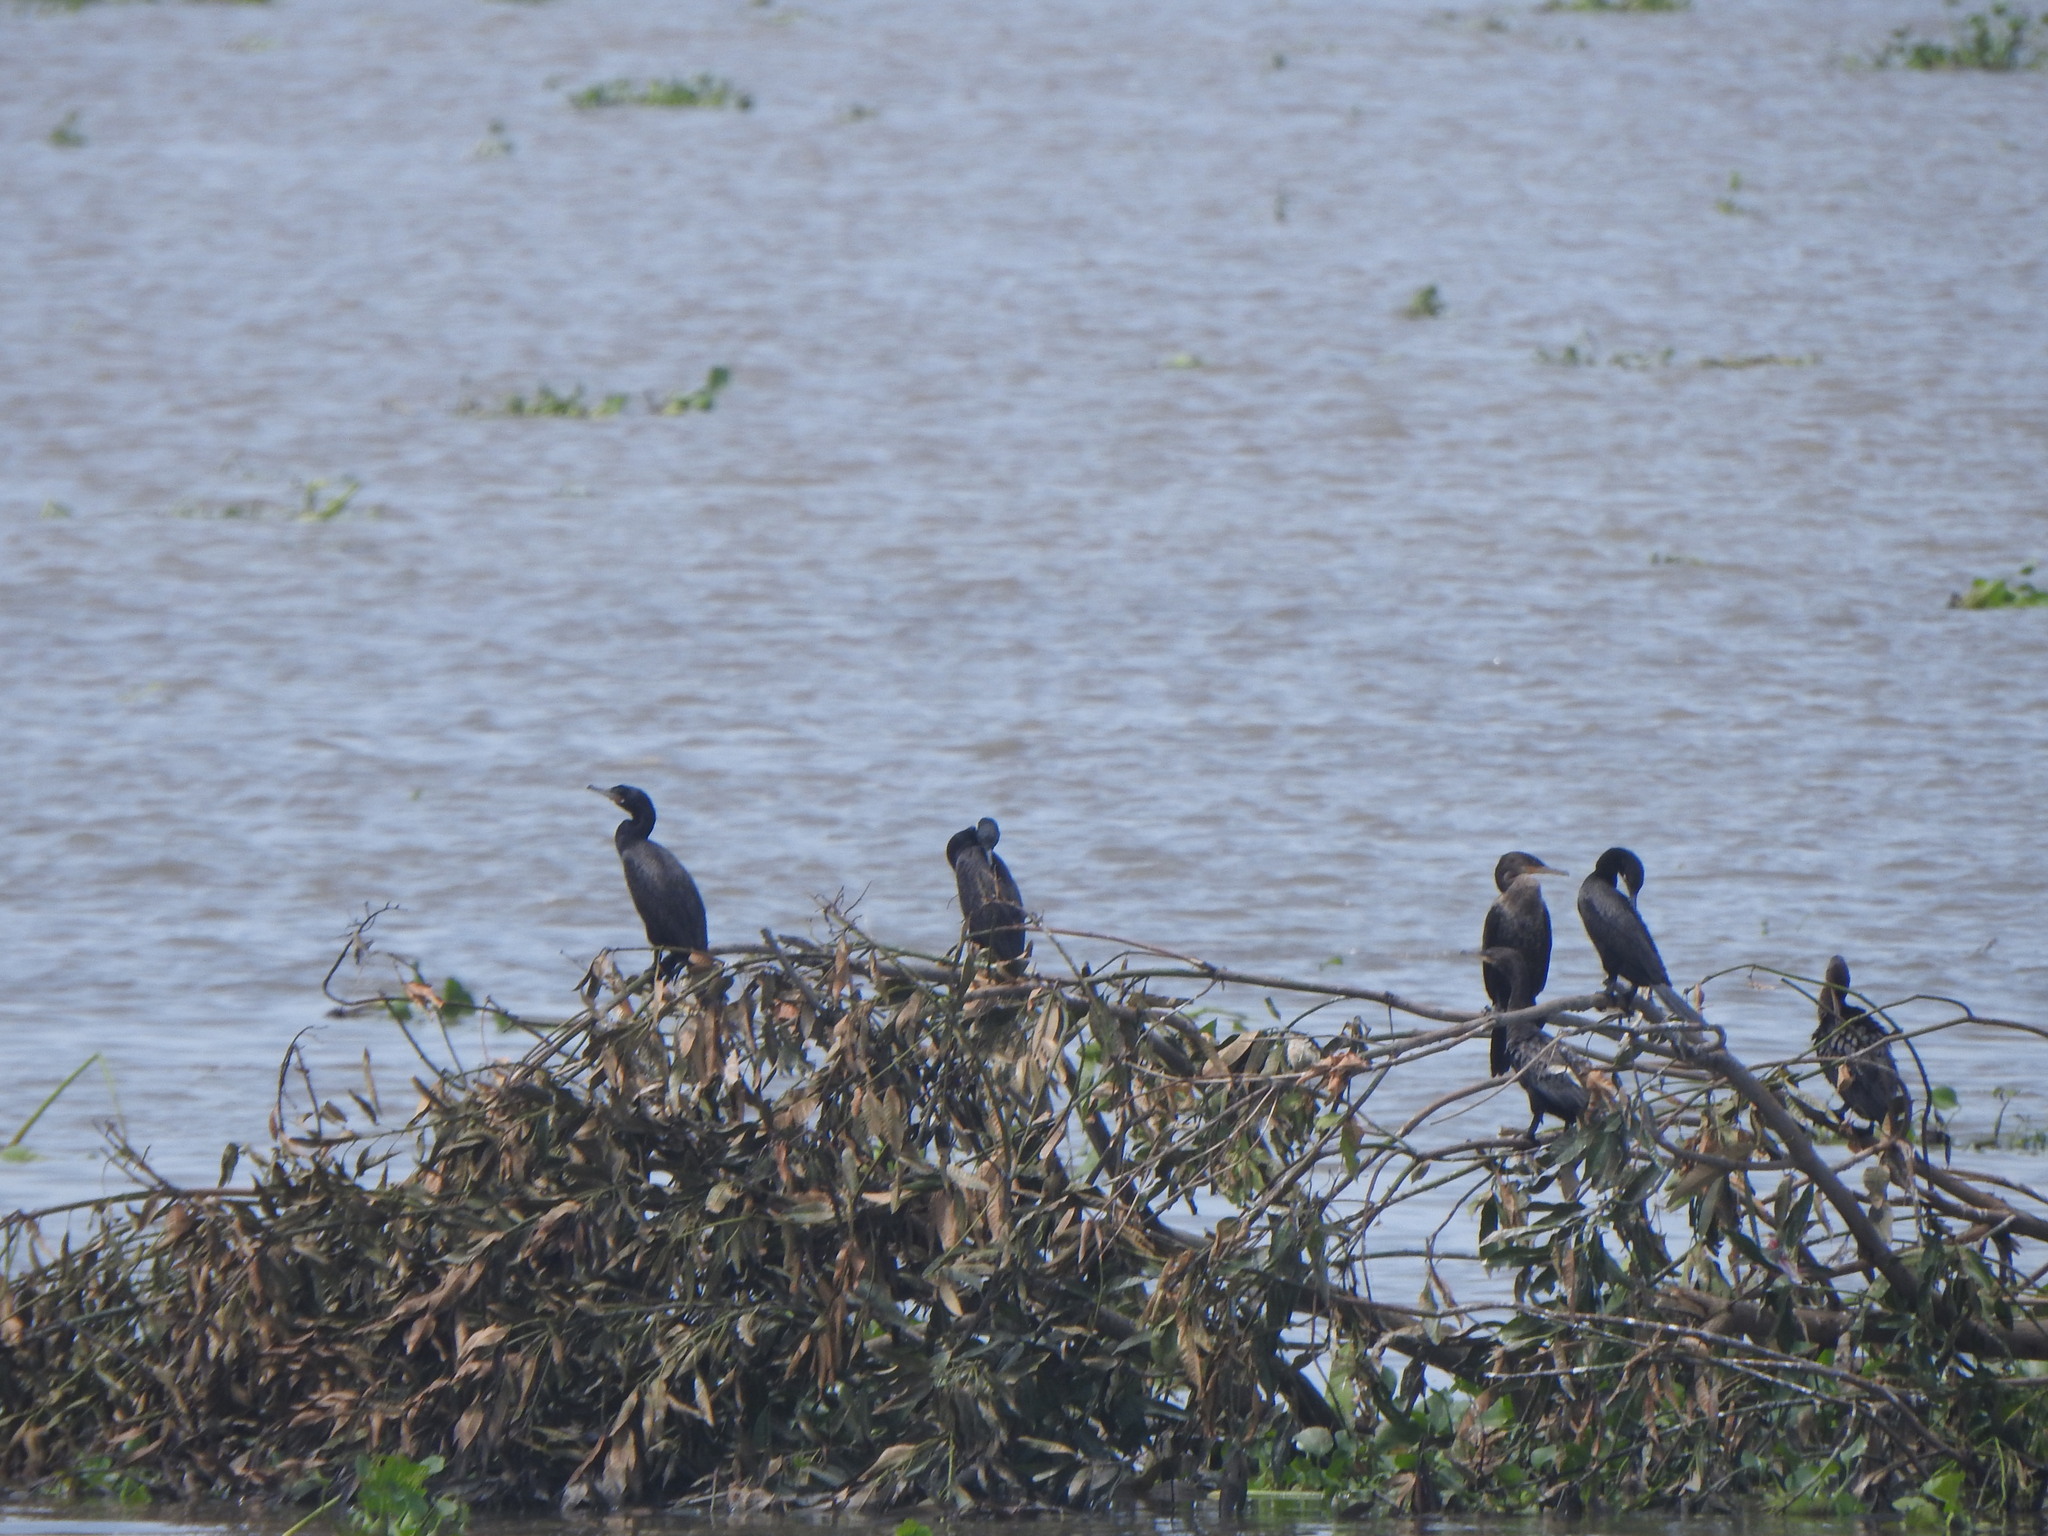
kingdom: Animalia
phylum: Chordata
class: Aves
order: Suliformes
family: Phalacrocoracidae
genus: Phalacrocorax
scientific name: Phalacrocorax brasilianus
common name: Neotropic cormorant
